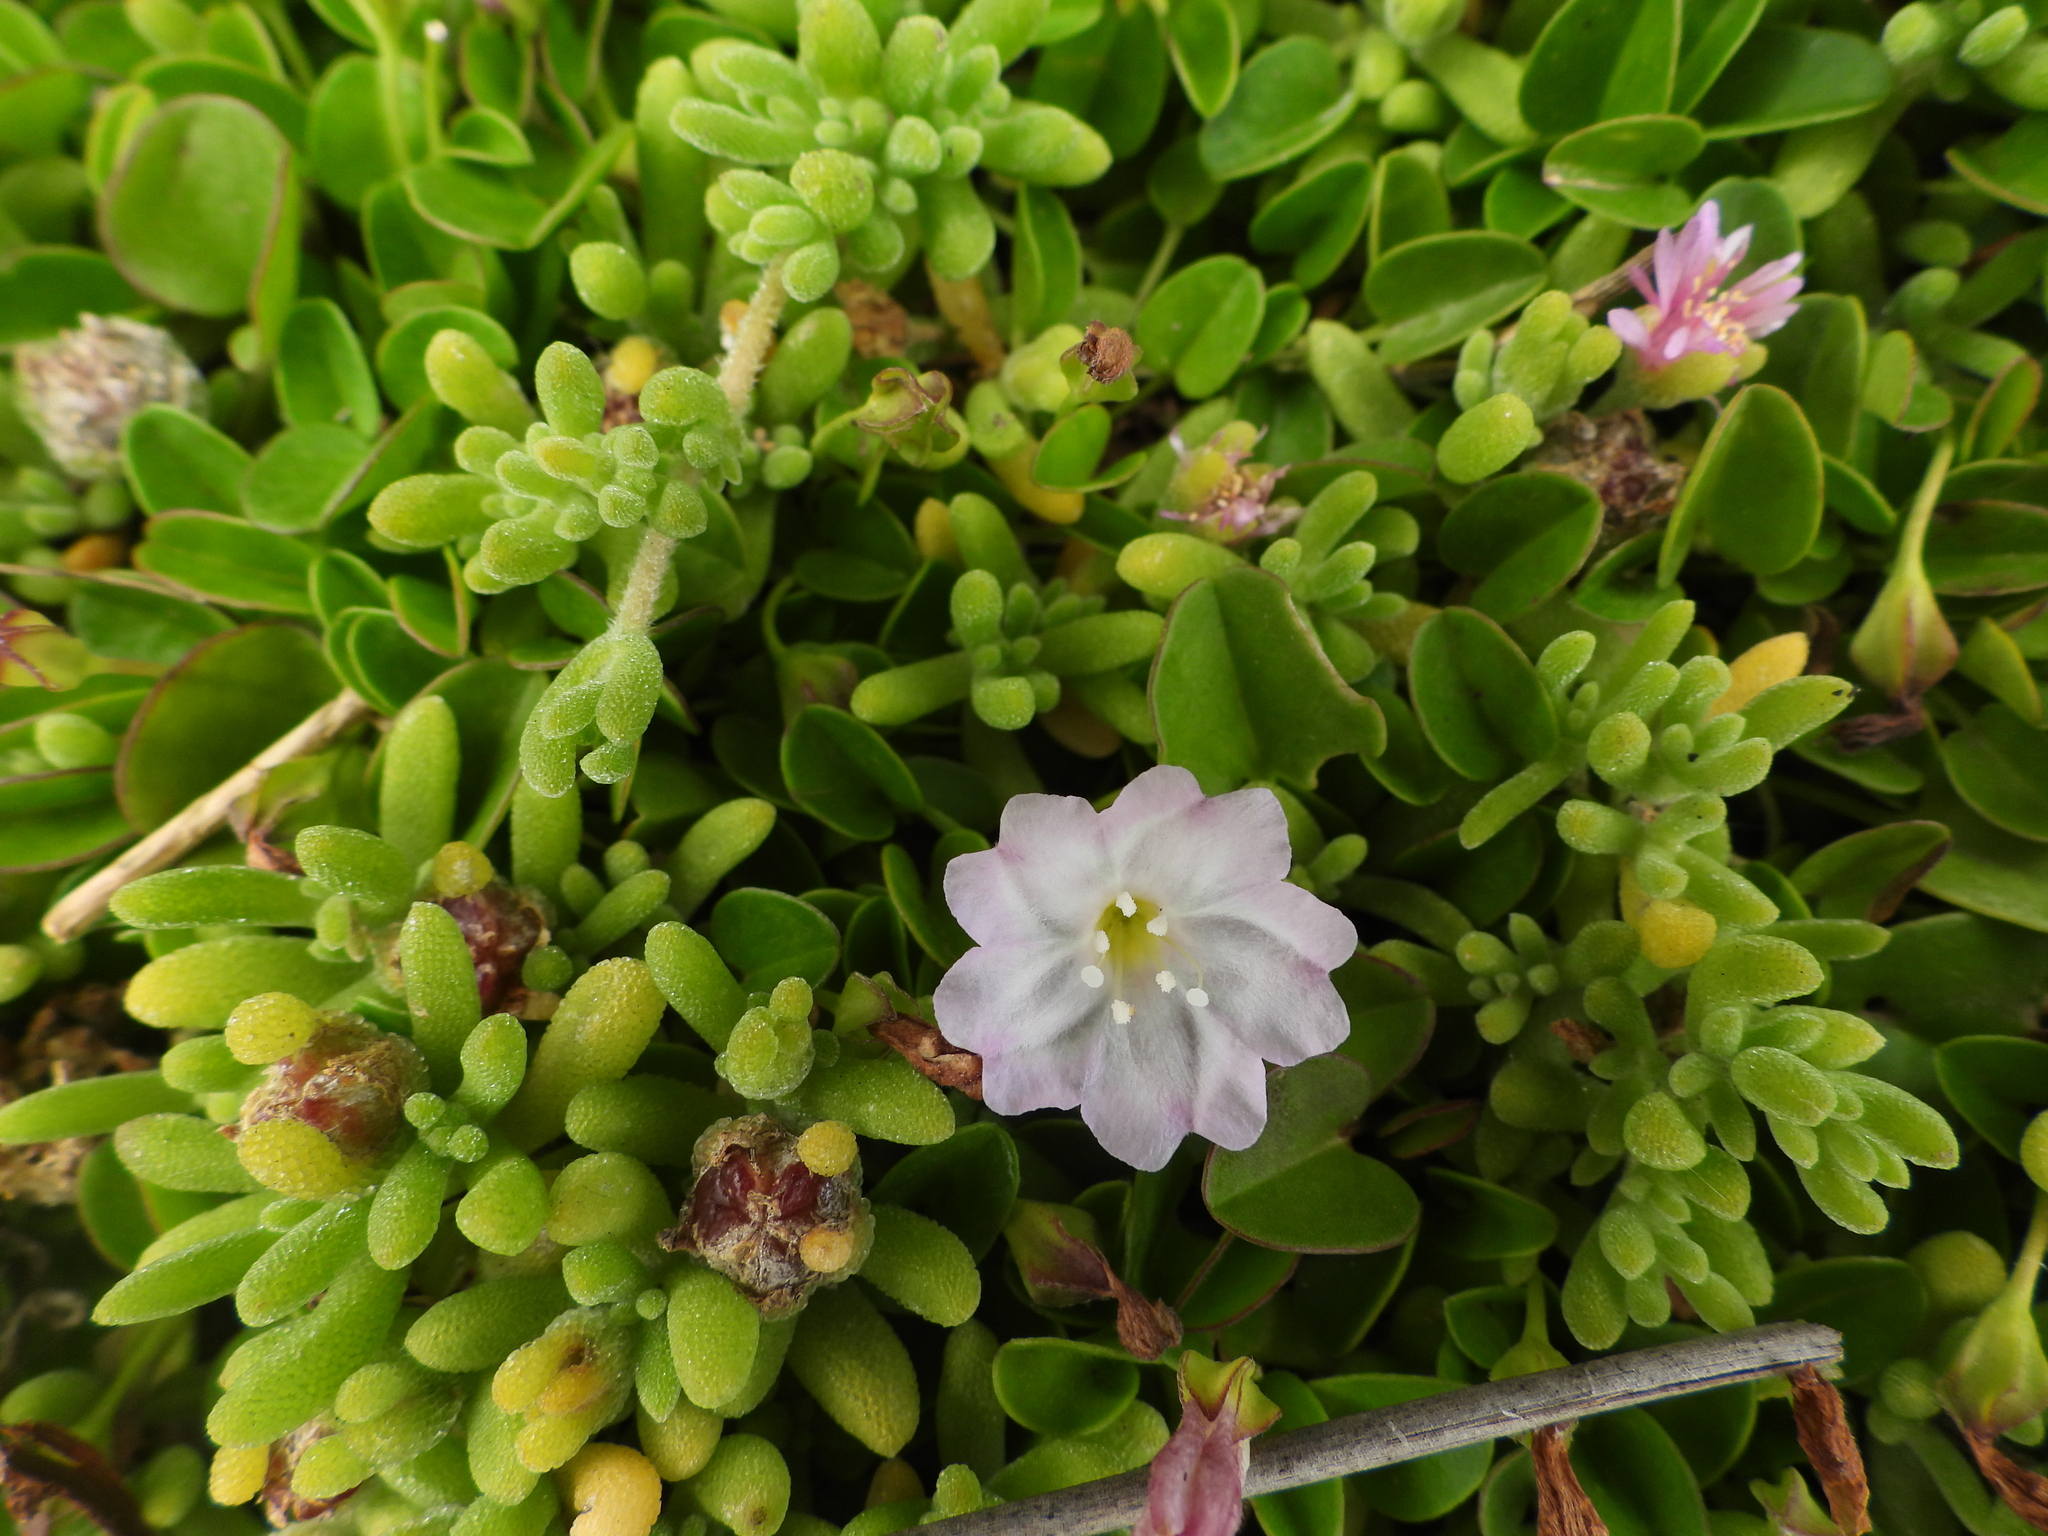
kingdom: Plantae
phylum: Tracheophyta
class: Magnoliopsida
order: Solanales
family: Convolvulaceae
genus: Falkia
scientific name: Falkia repens
